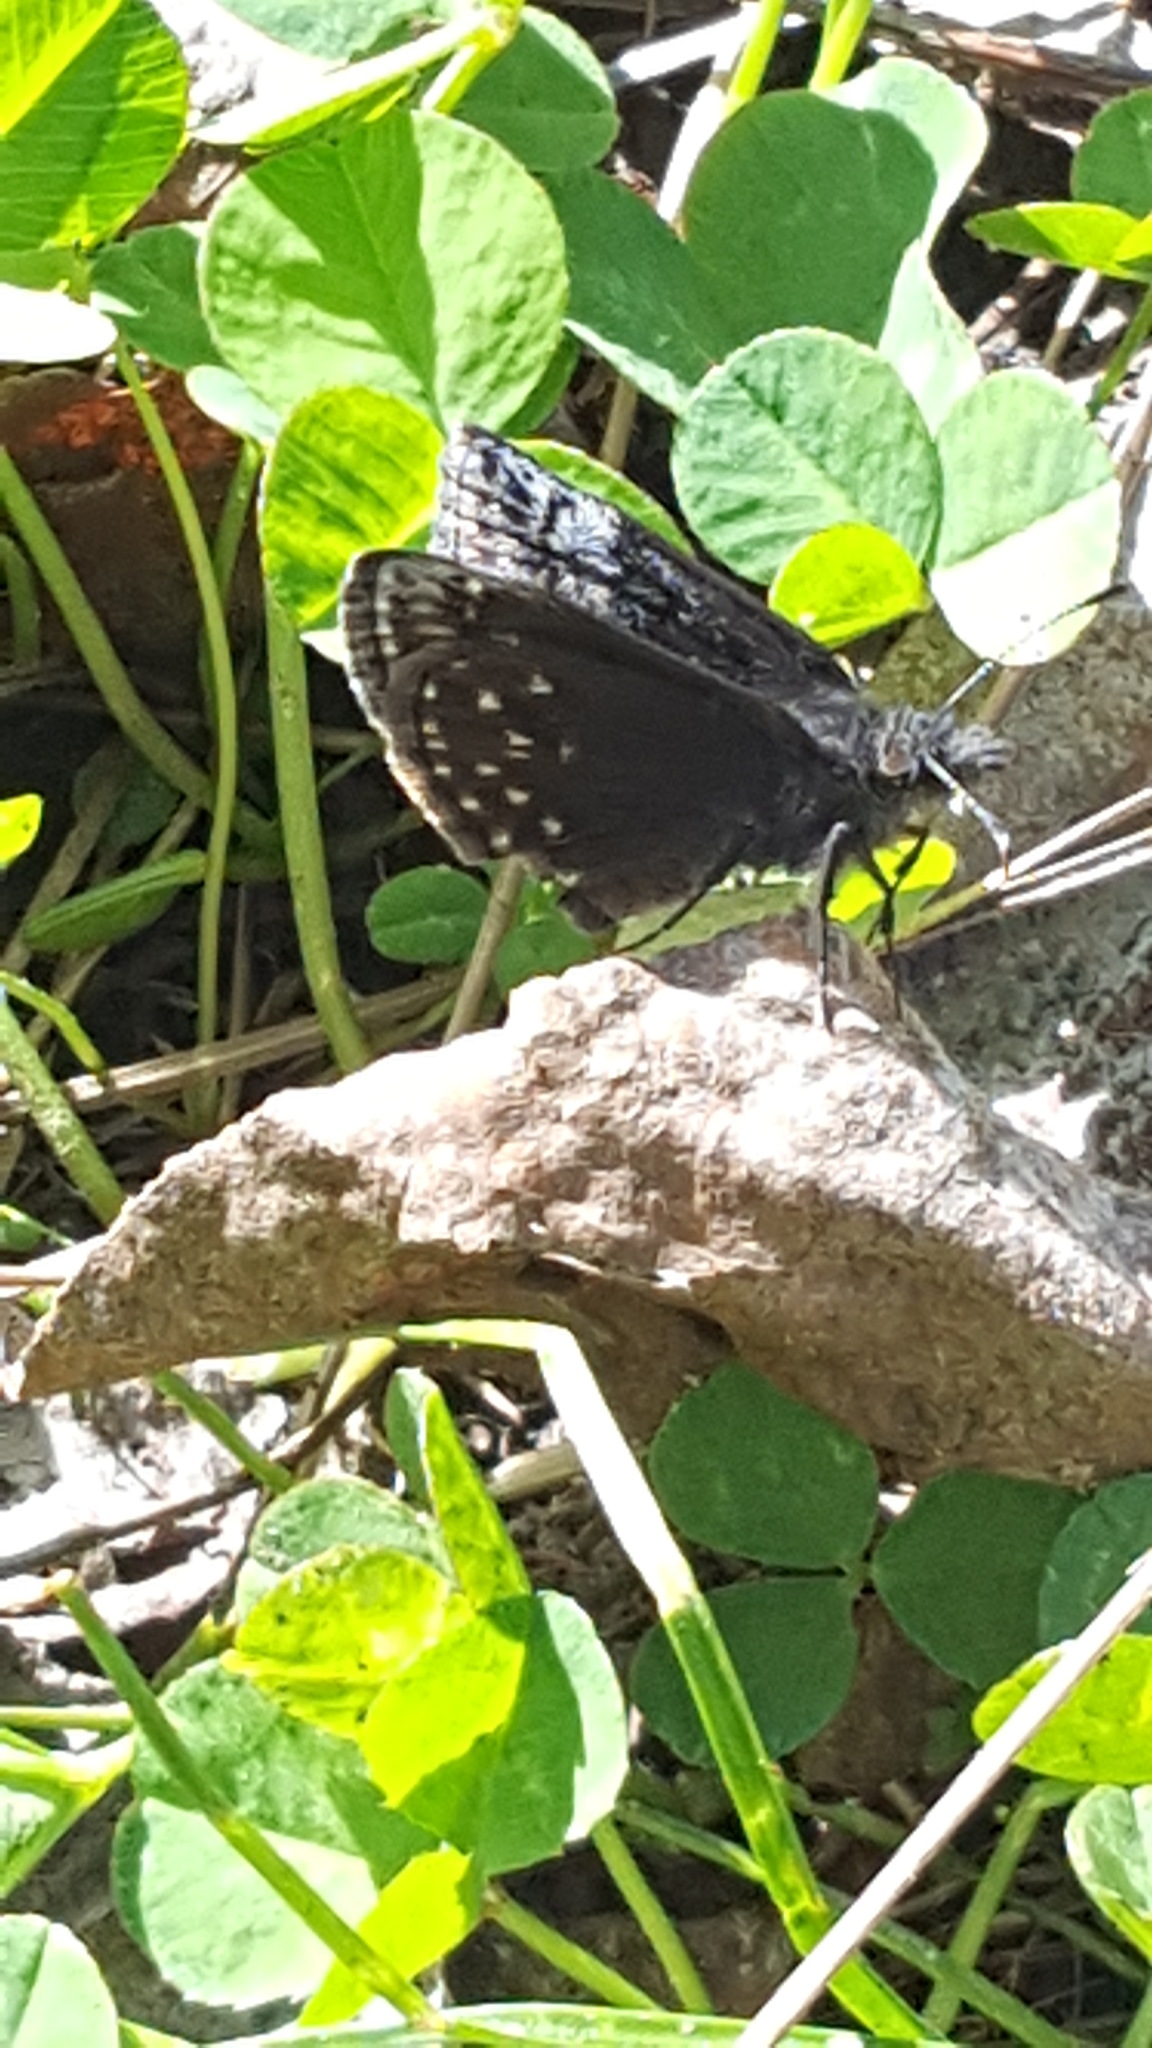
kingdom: Animalia
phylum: Arthropoda
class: Insecta
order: Lepidoptera
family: Hesperiidae
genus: Erynnis
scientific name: Erynnis icelus
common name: Dreamy duskywing
